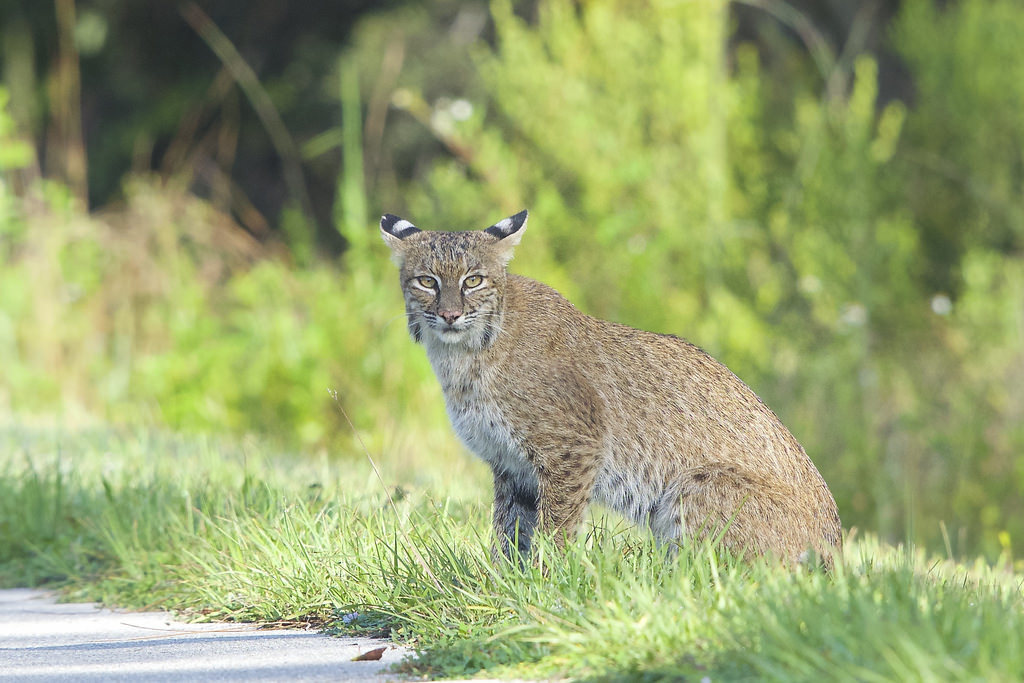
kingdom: Animalia
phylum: Chordata
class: Mammalia
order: Carnivora
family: Felidae
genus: Lynx
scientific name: Lynx rufus
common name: Bobcat
